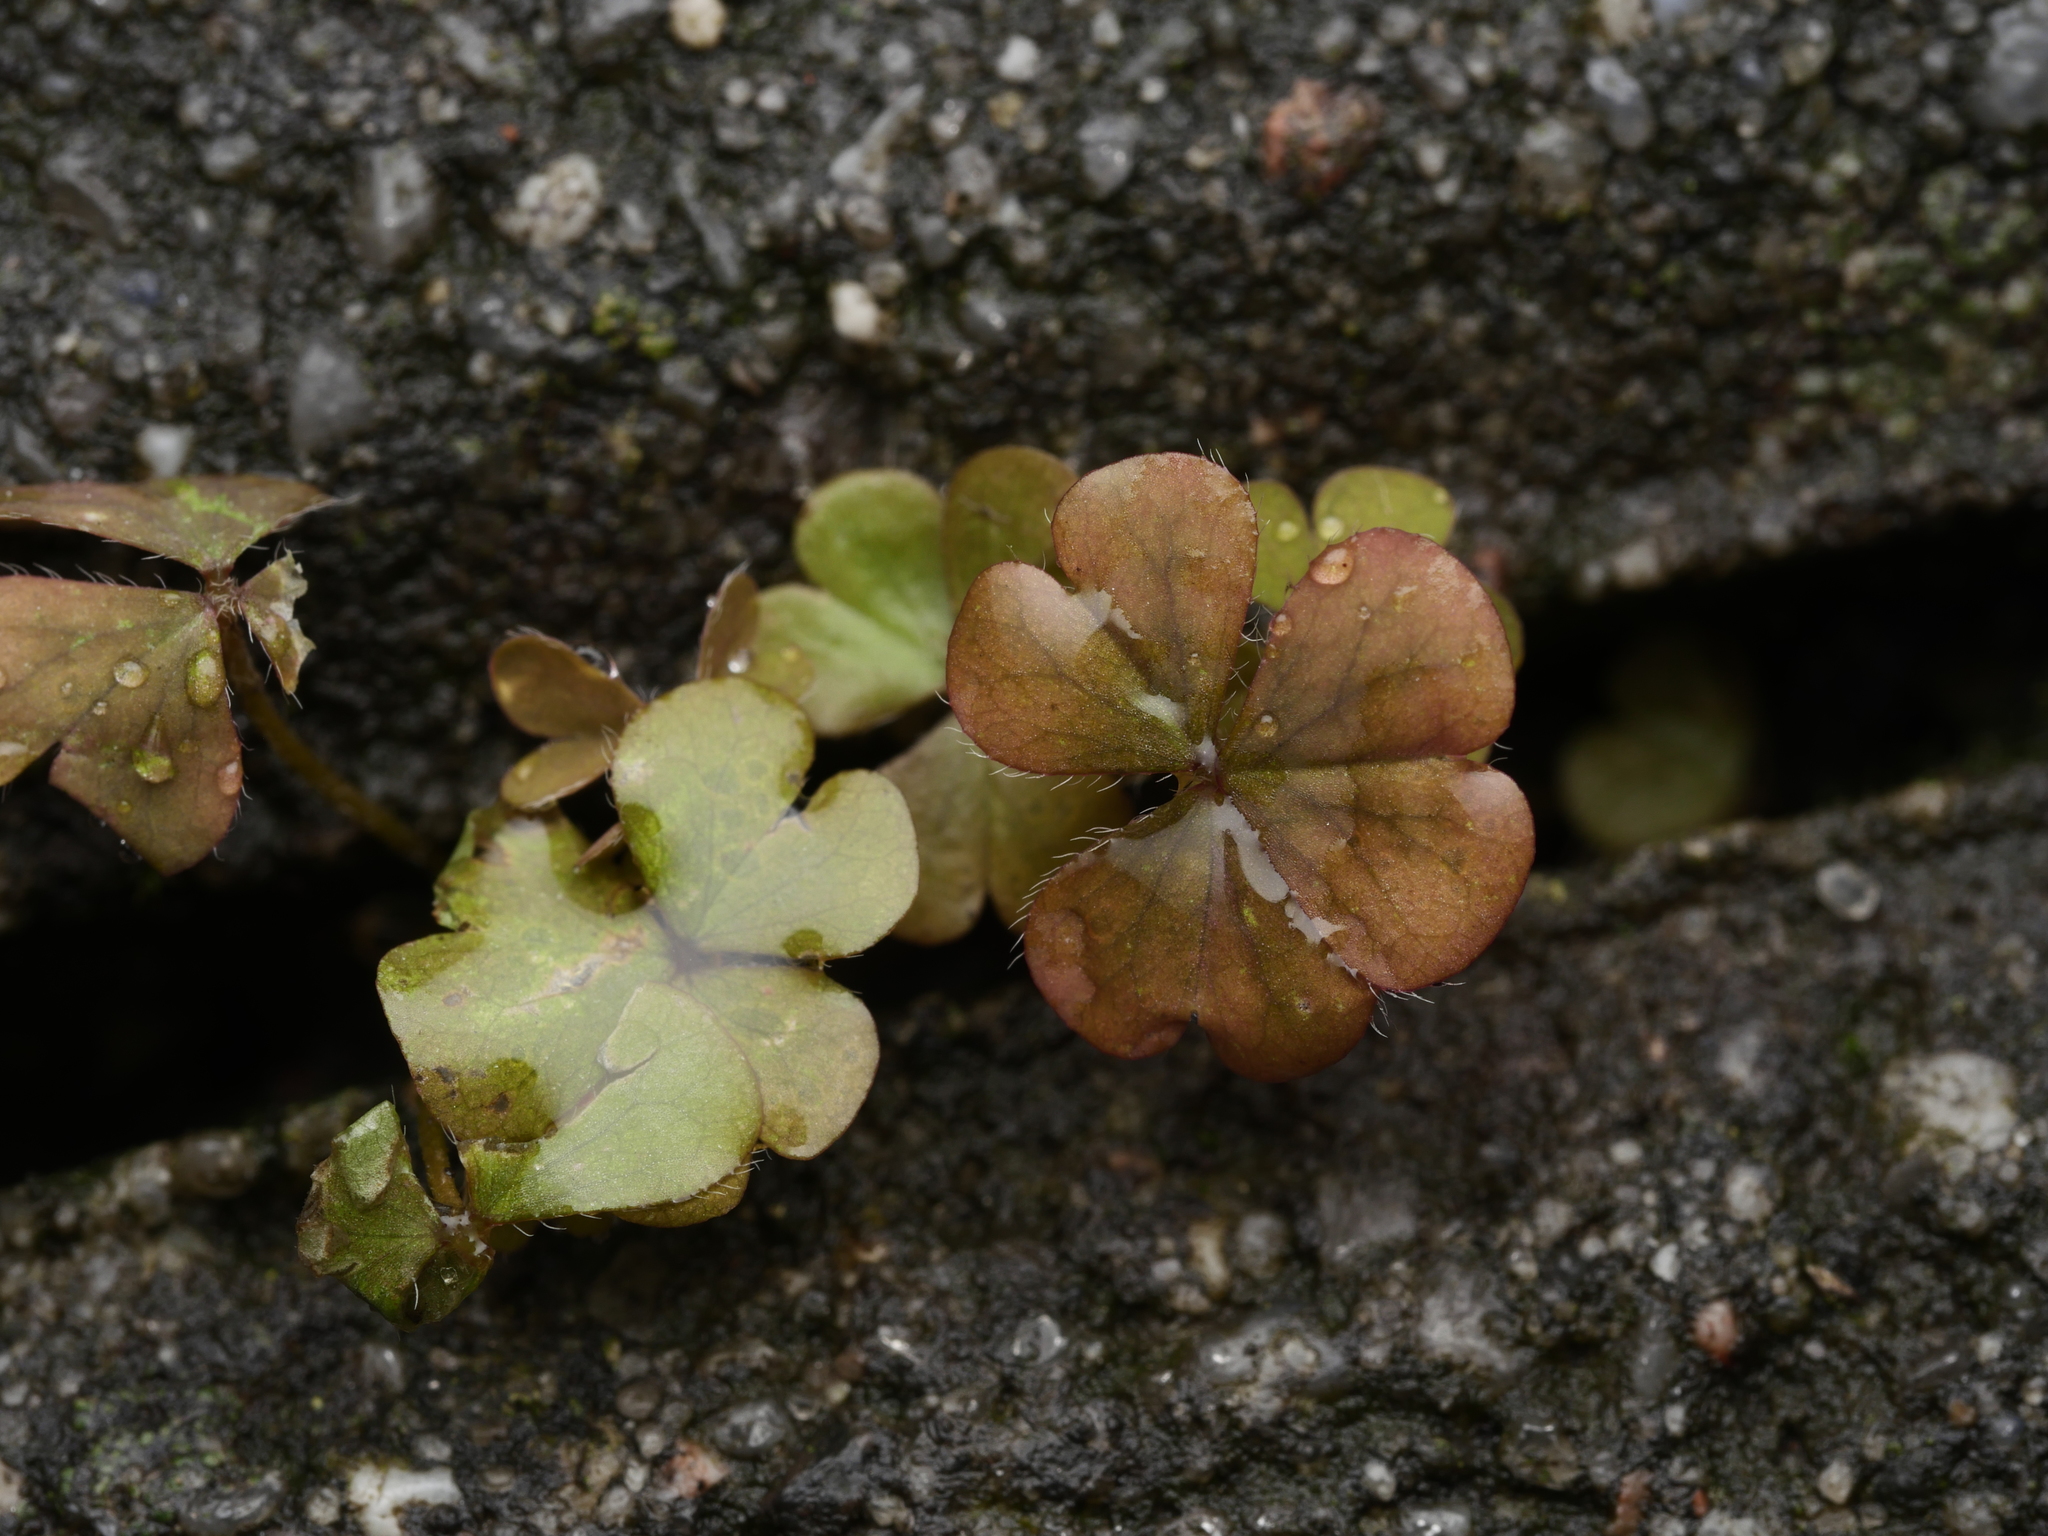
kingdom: Plantae
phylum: Tracheophyta
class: Magnoliopsida
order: Oxalidales
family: Oxalidaceae
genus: Oxalis
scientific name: Oxalis corniculata
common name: Procumbent yellow-sorrel
